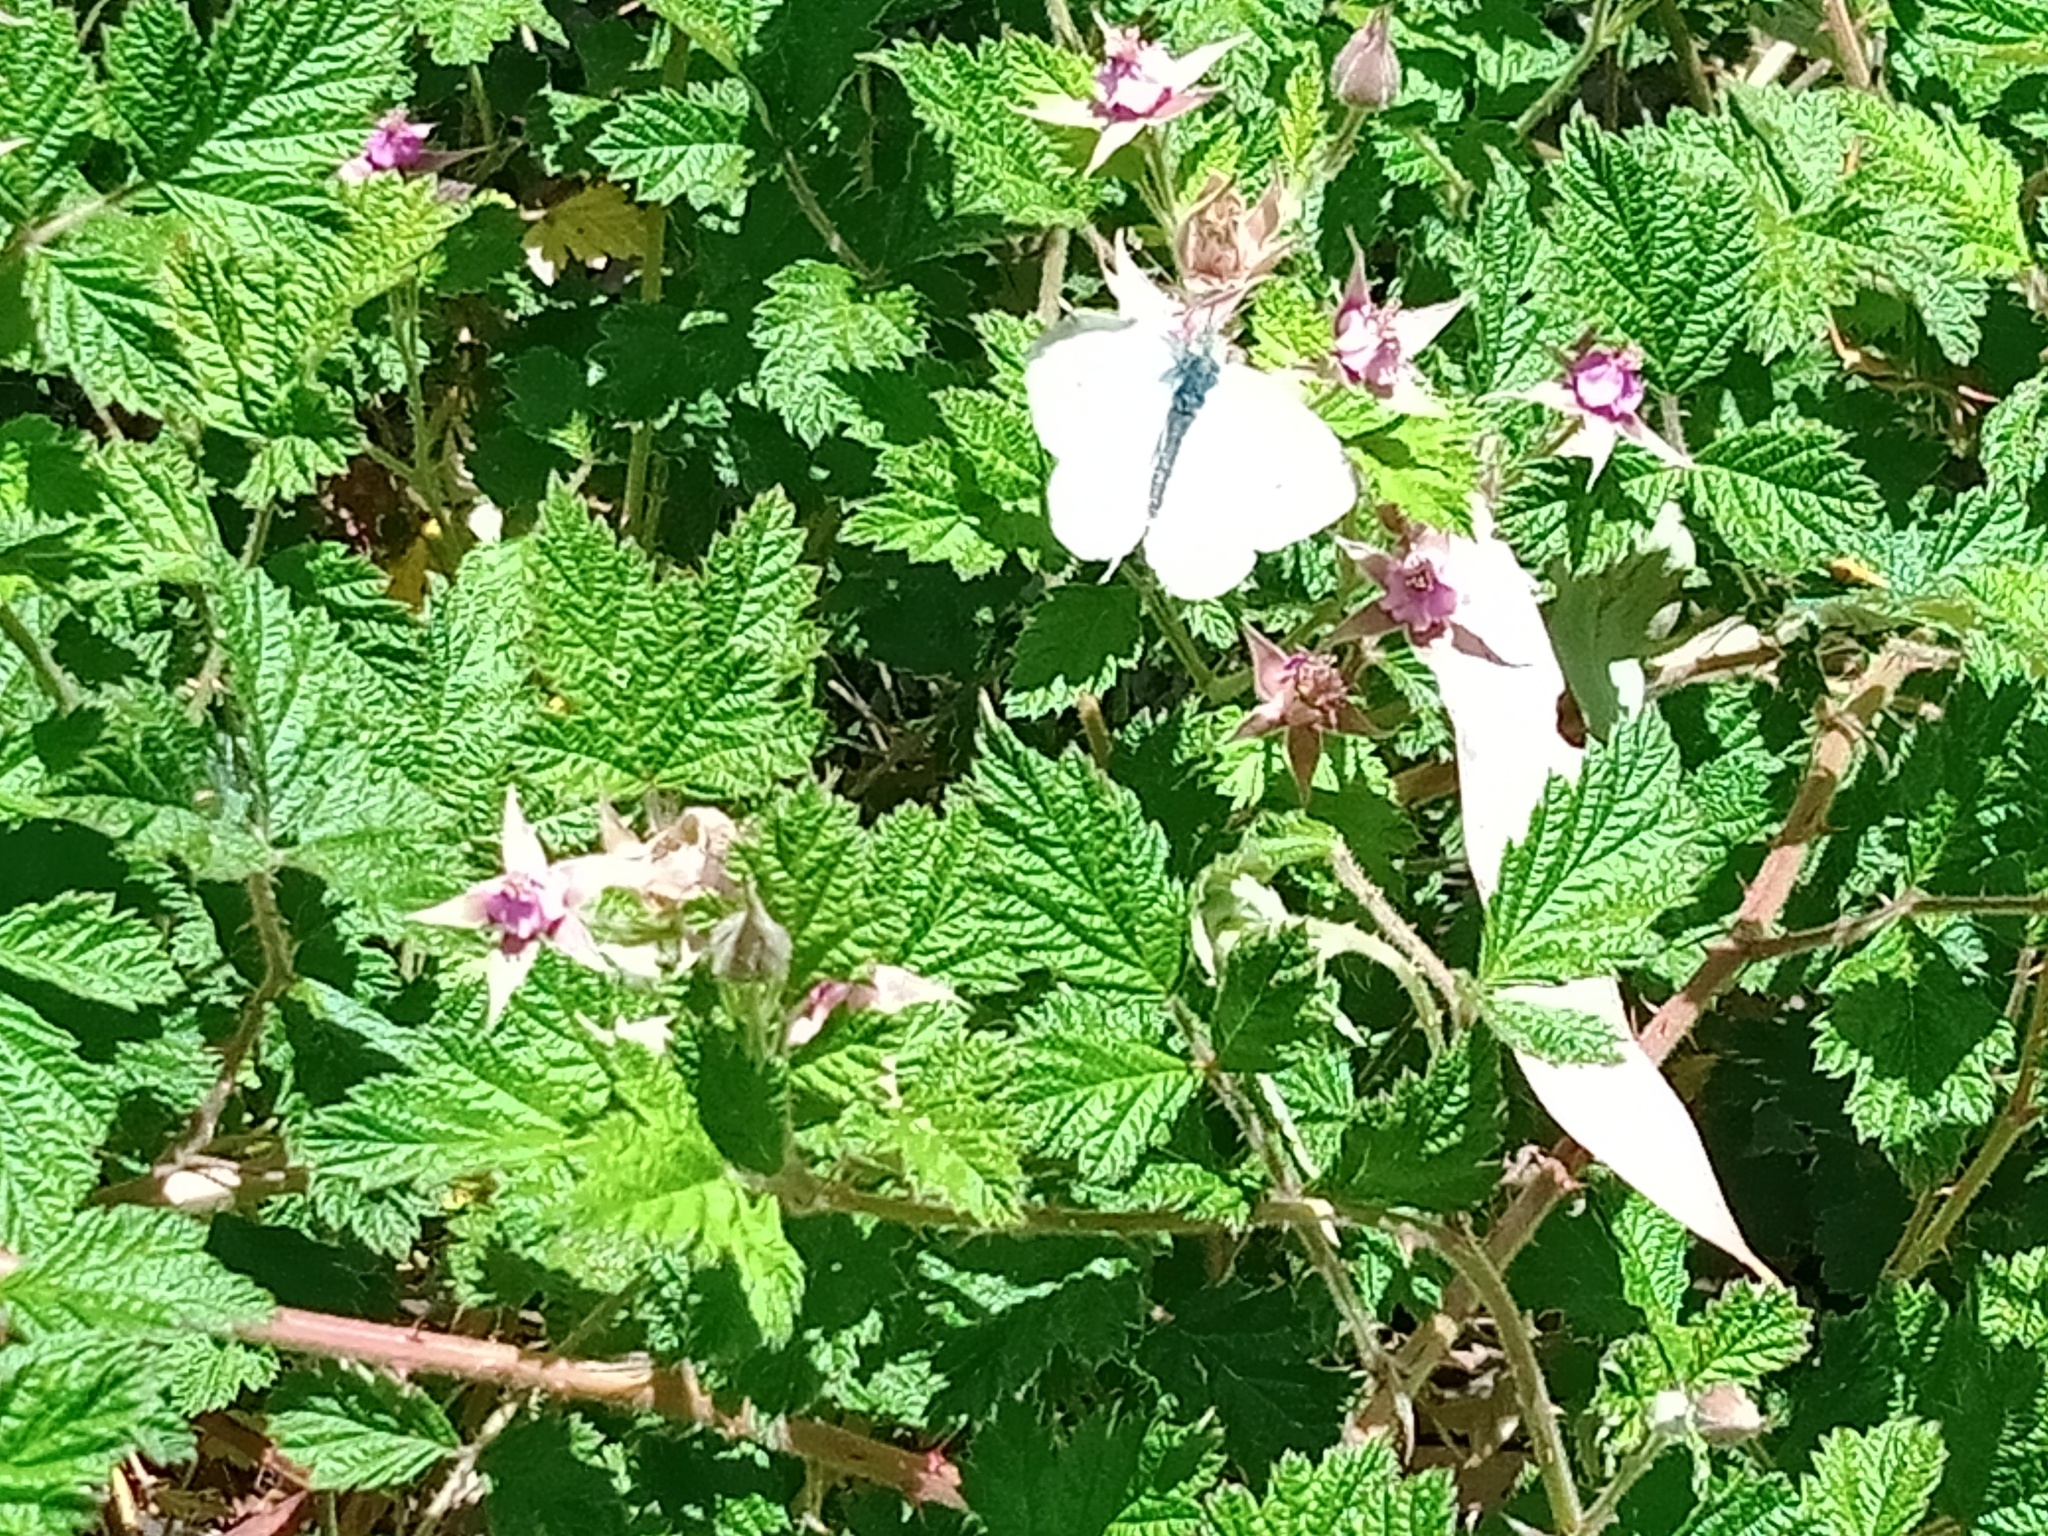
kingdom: Animalia
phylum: Arthropoda
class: Insecta
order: Lepidoptera
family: Pieridae
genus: Pieris
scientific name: Pieris rapae
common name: Small white
